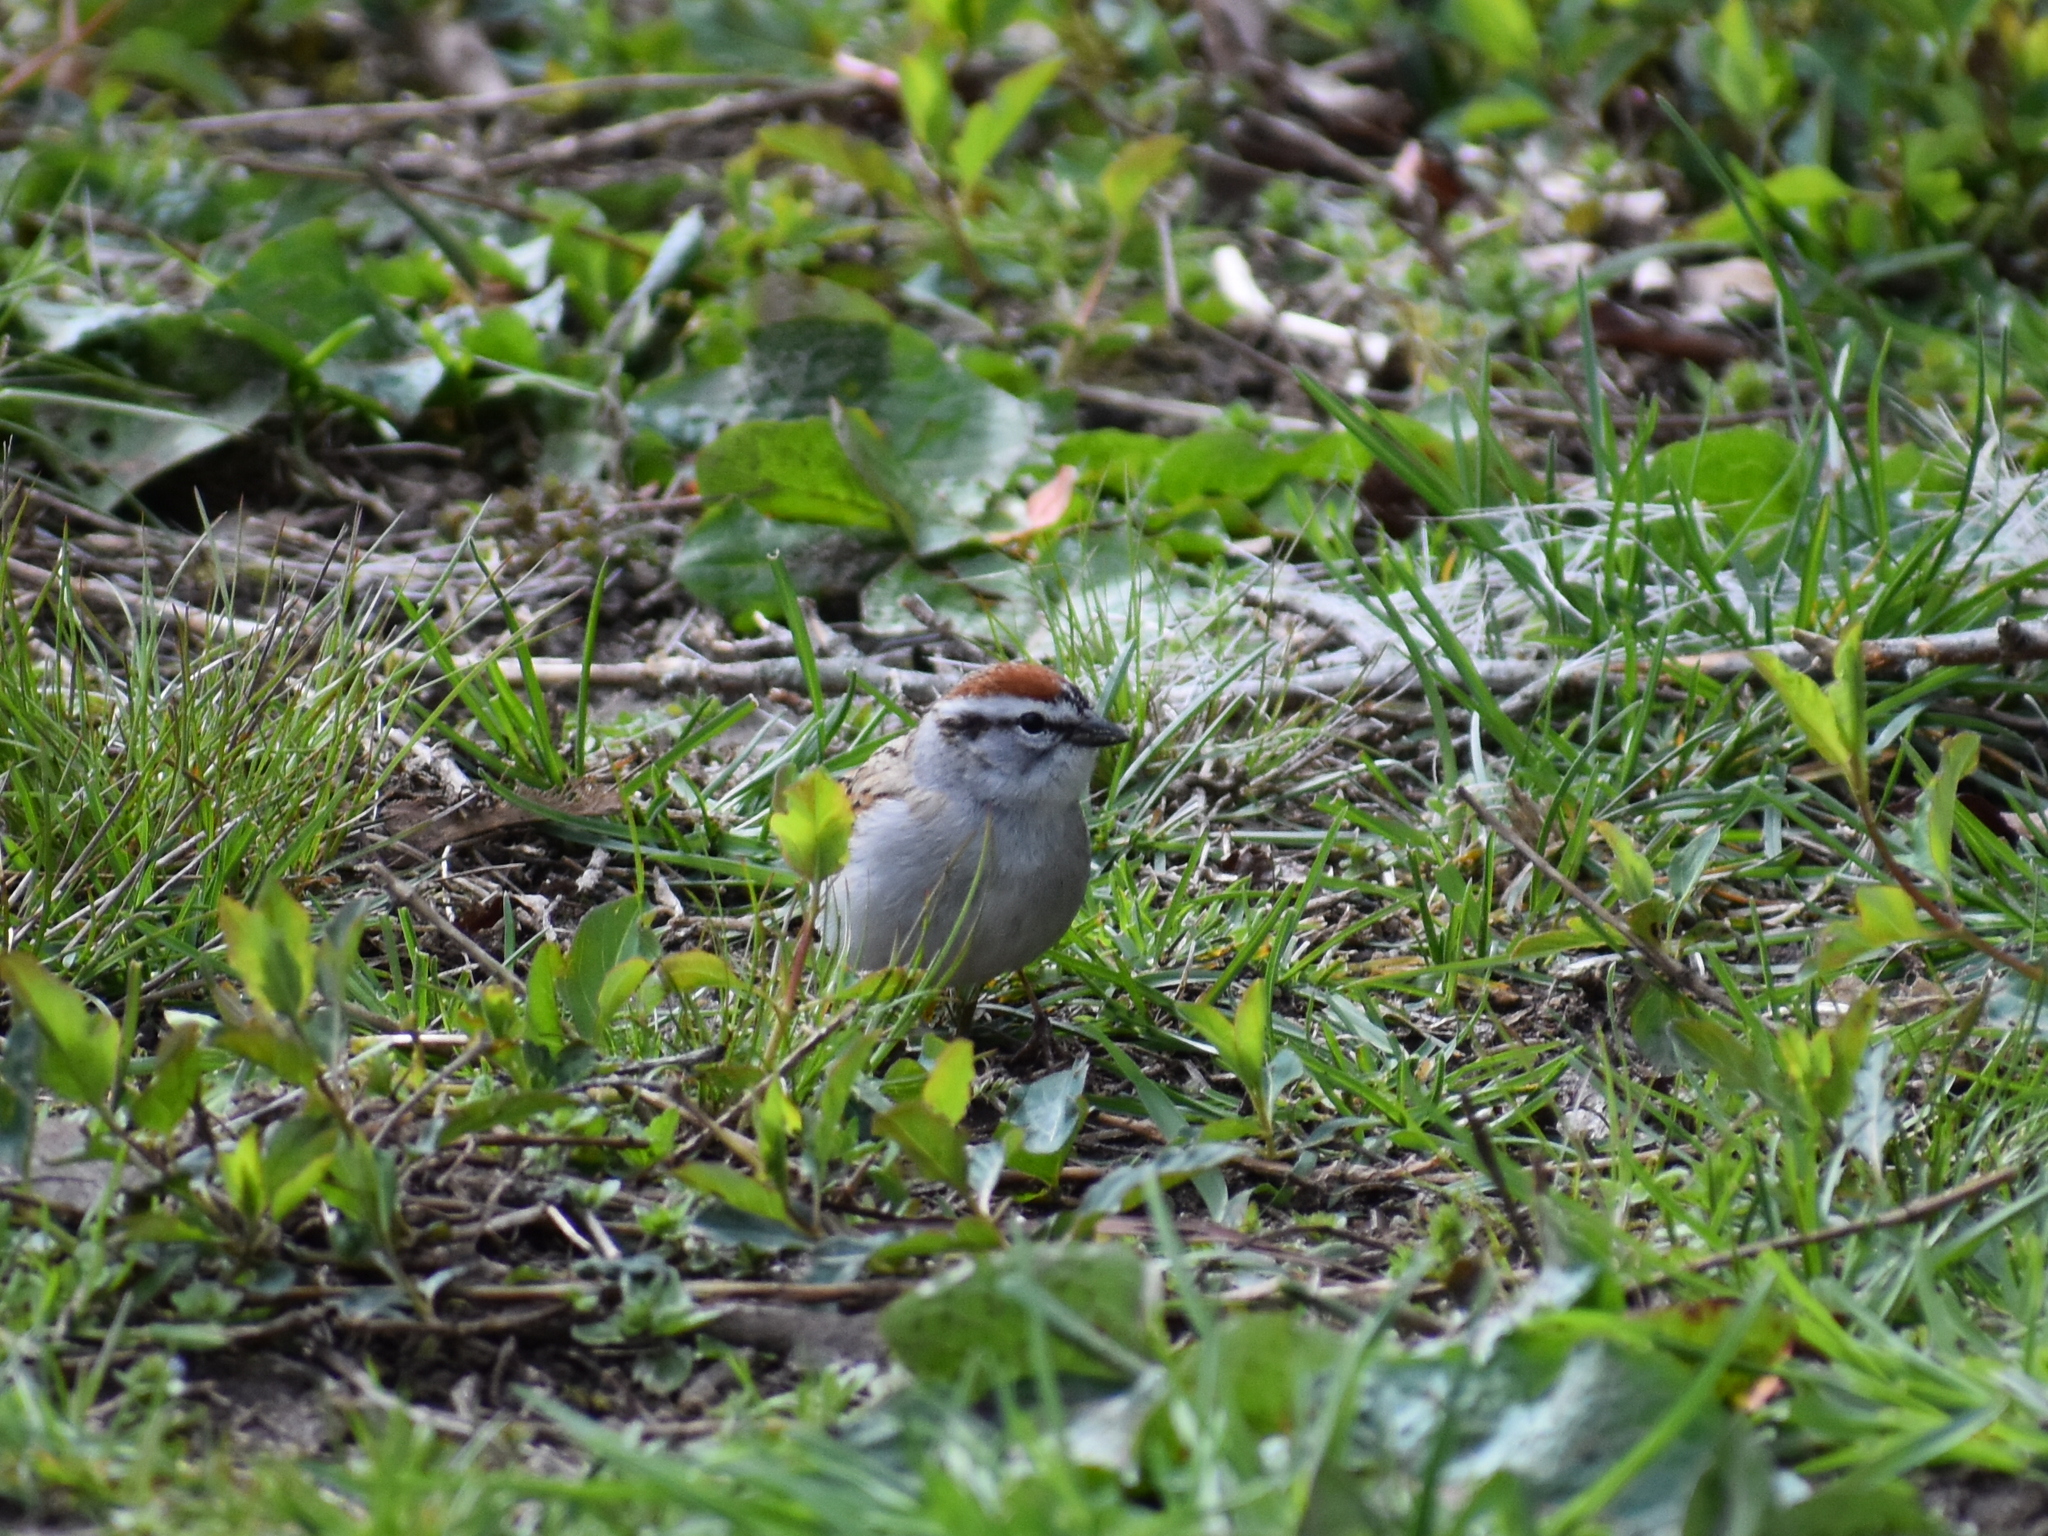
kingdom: Animalia
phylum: Chordata
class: Aves
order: Passeriformes
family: Passerellidae
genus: Spizella
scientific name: Spizella passerina
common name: Chipping sparrow
